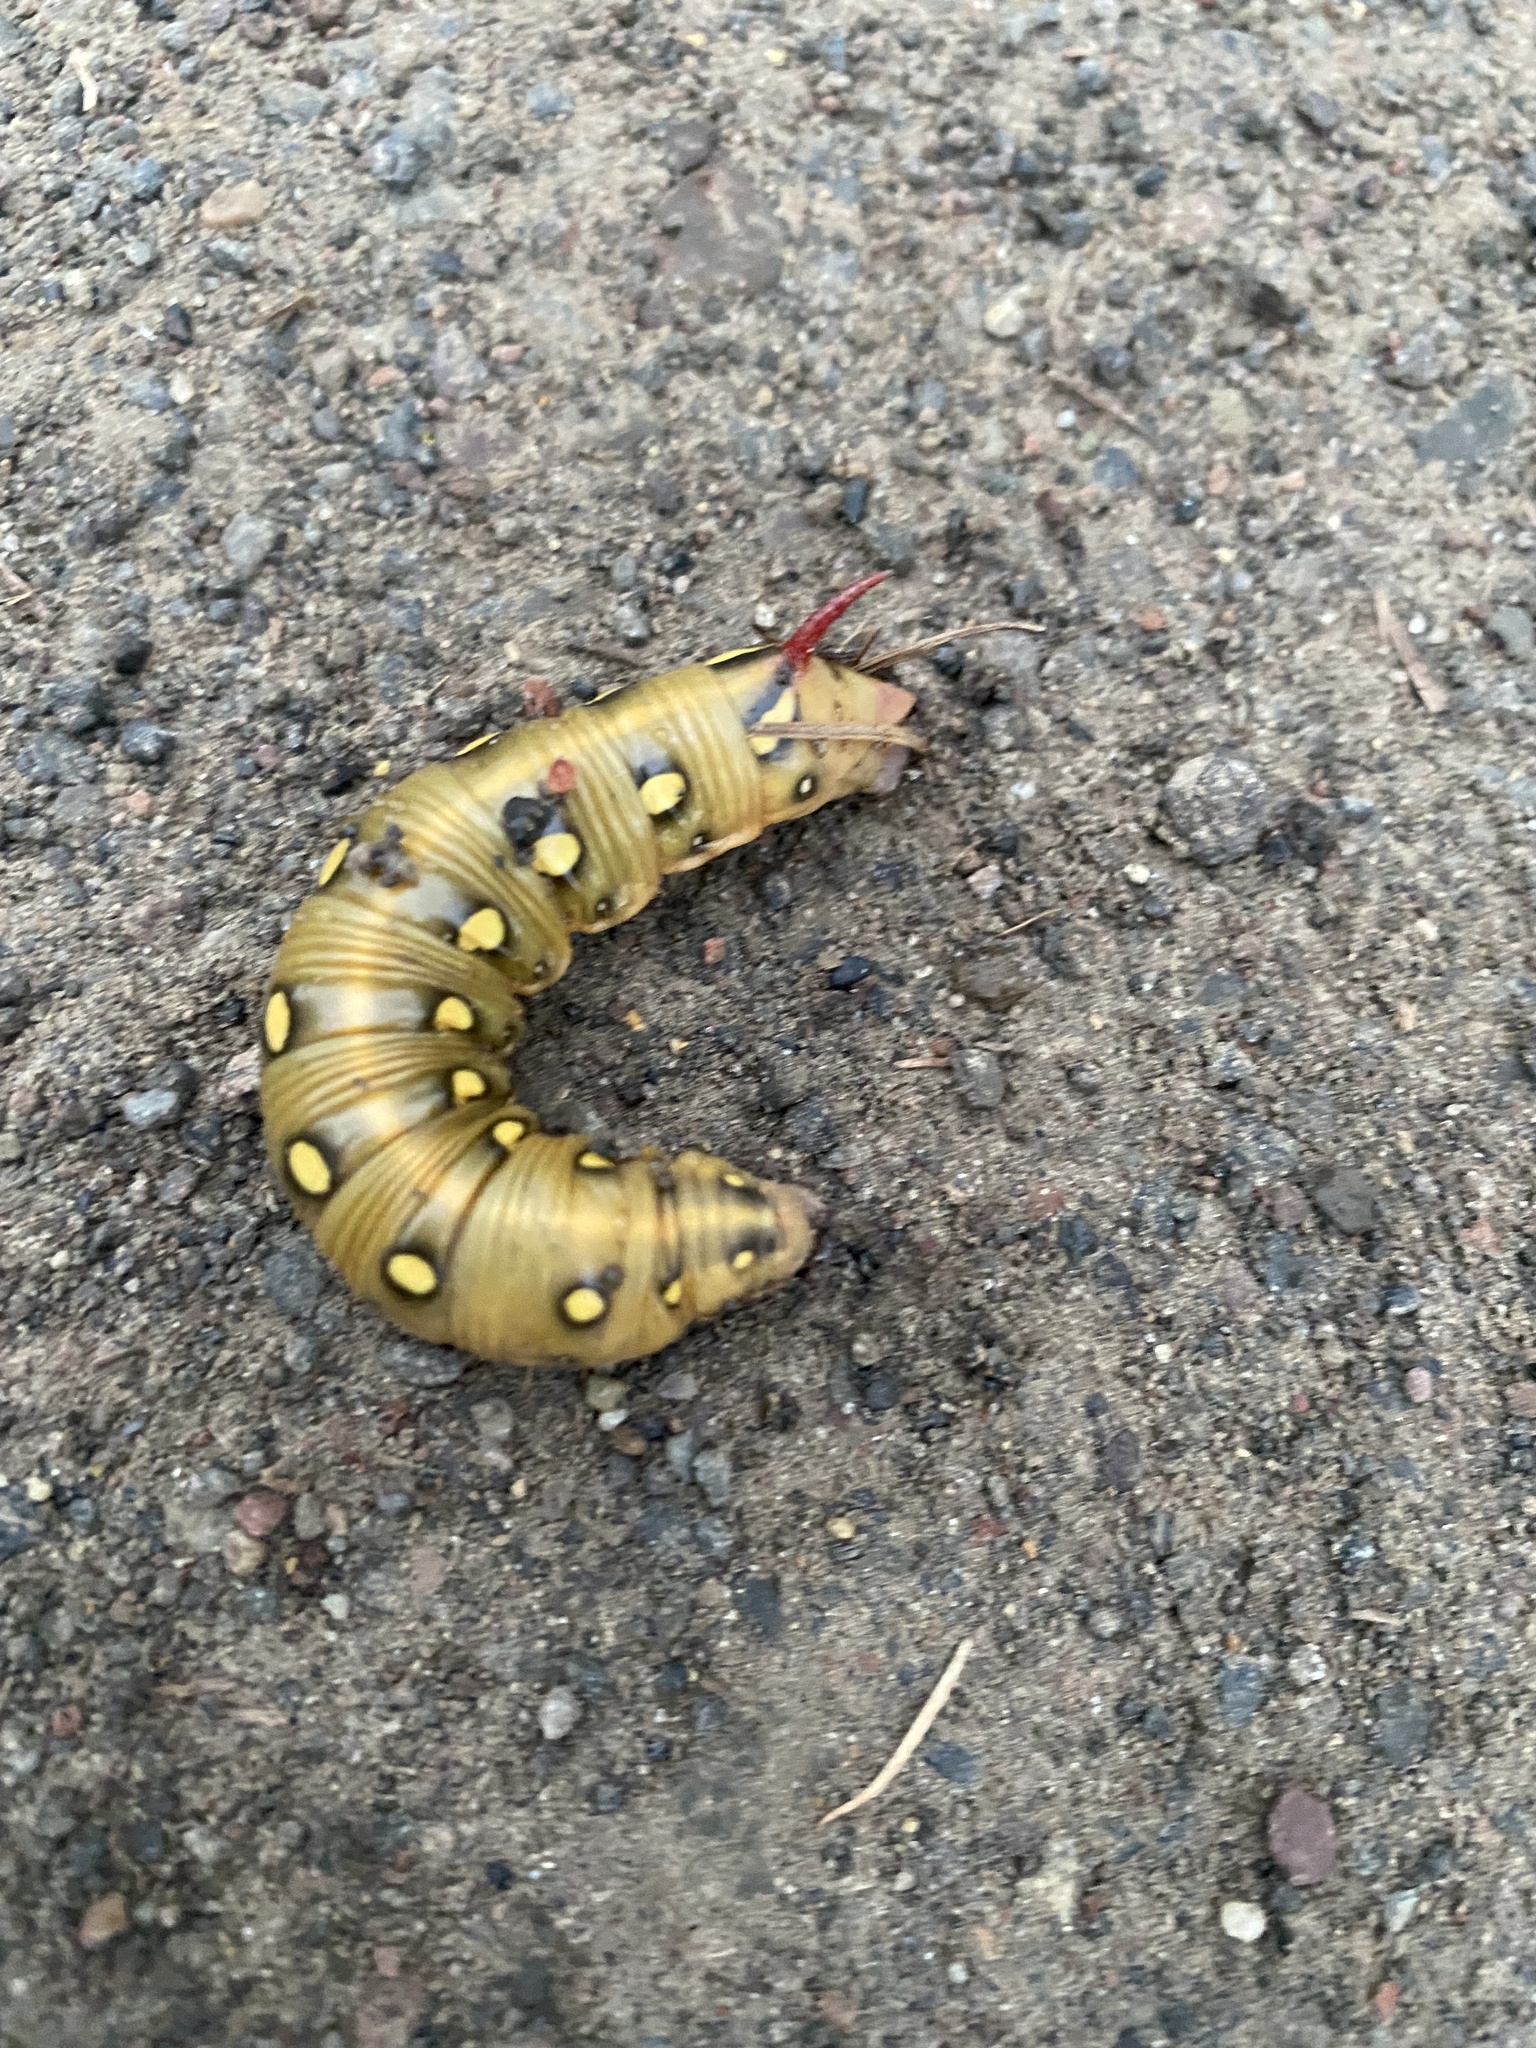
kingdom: Animalia
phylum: Arthropoda
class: Insecta
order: Lepidoptera
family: Sphingidae
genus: Hyles
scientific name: Hyles gallii
